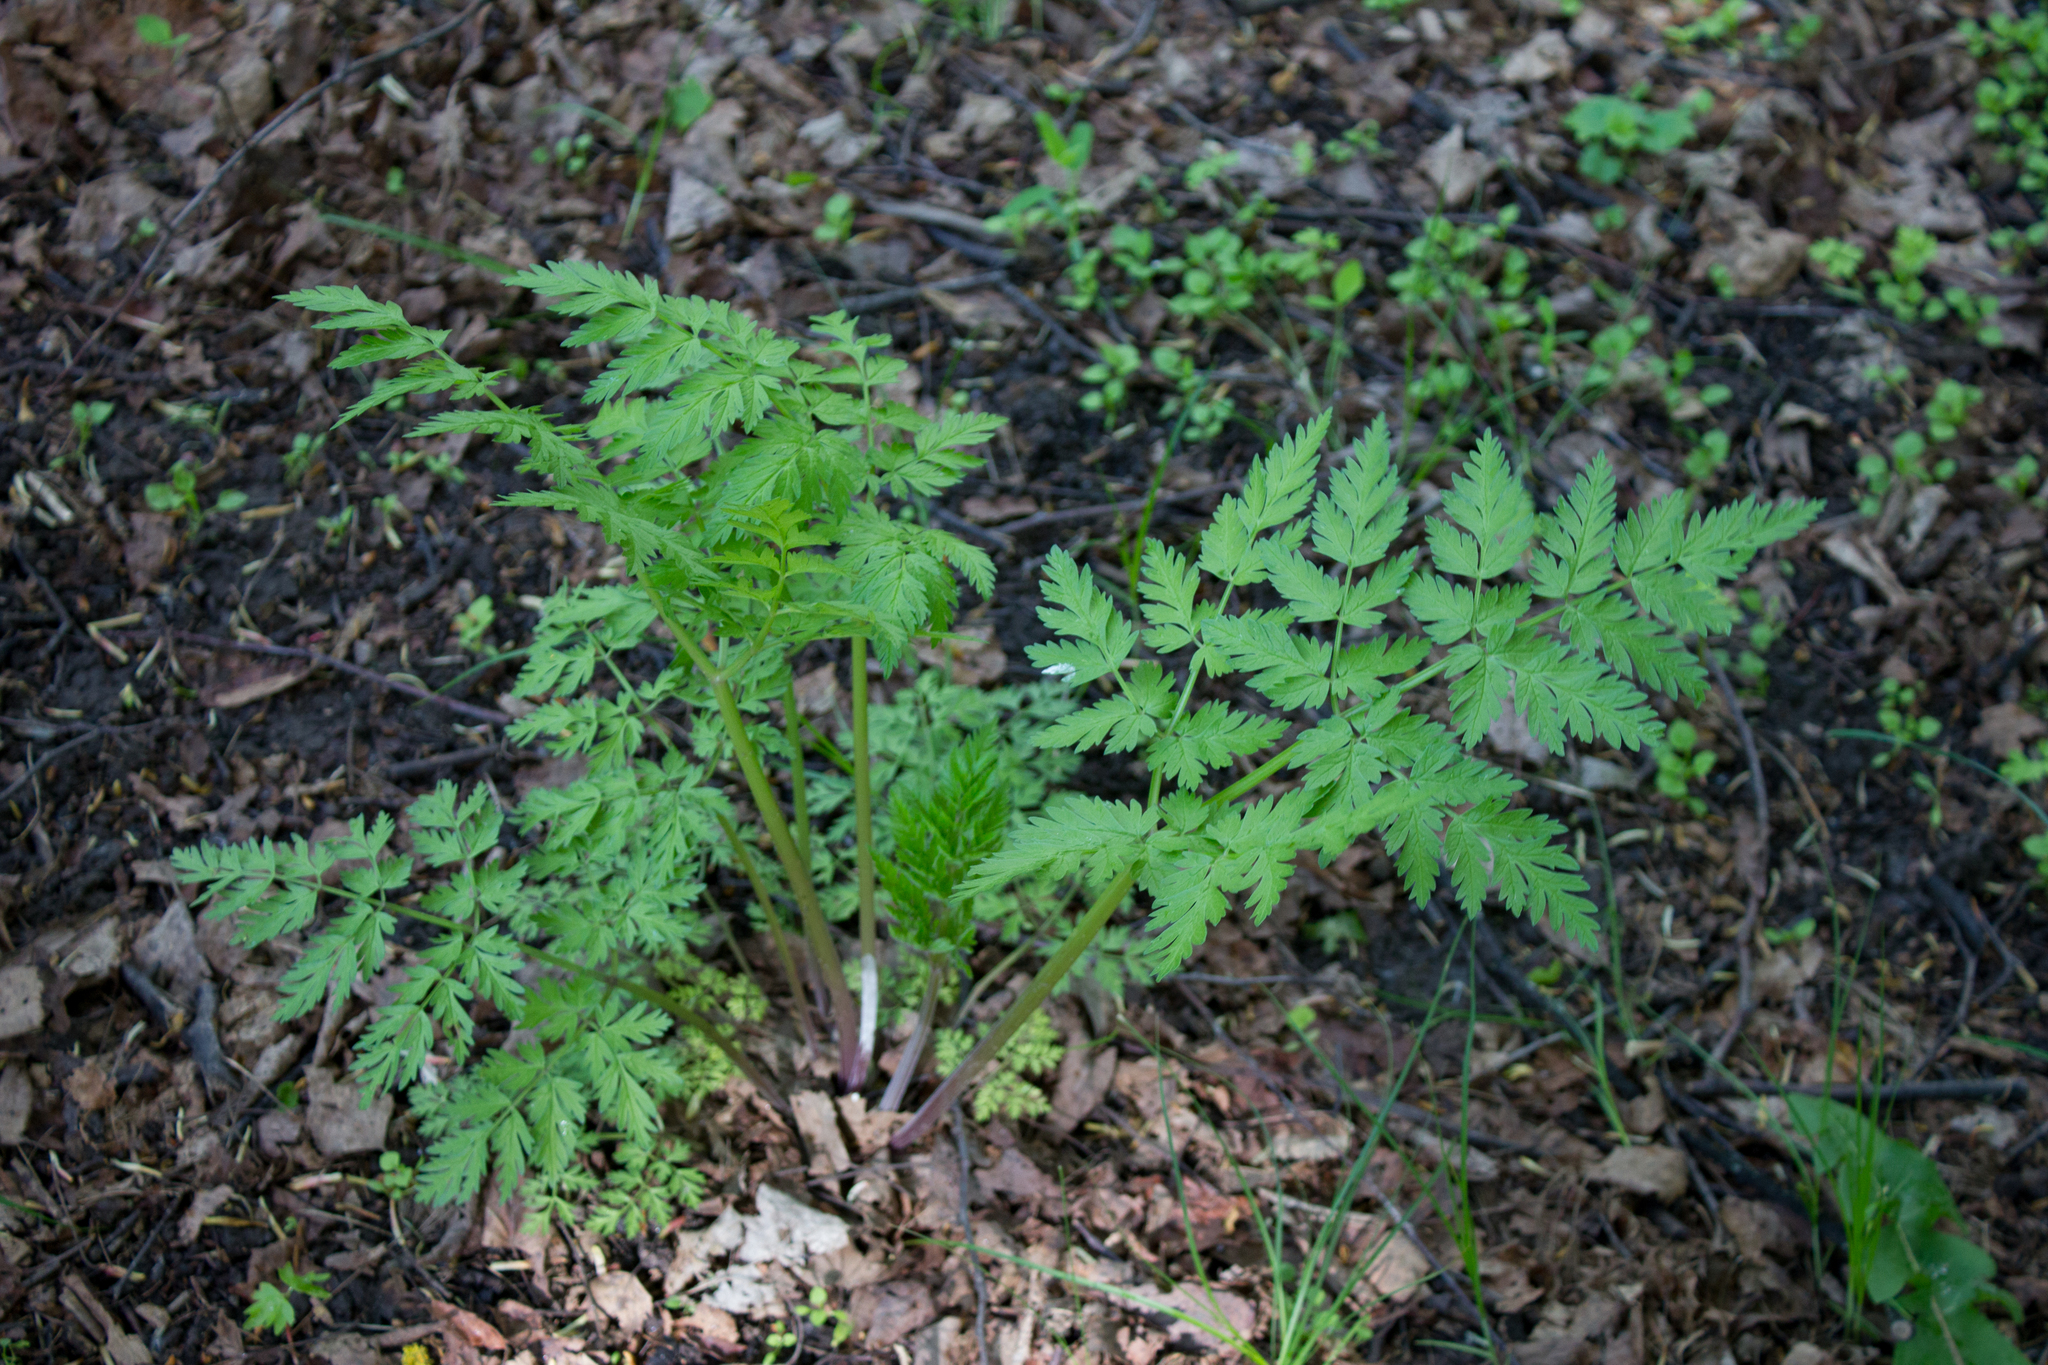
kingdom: Plantae
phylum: Tracheophyta
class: Magnoliopsida
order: Apiales
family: Apiaceae
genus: Anthriscus
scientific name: Anthriscus sylvestris
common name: Cow parsley
